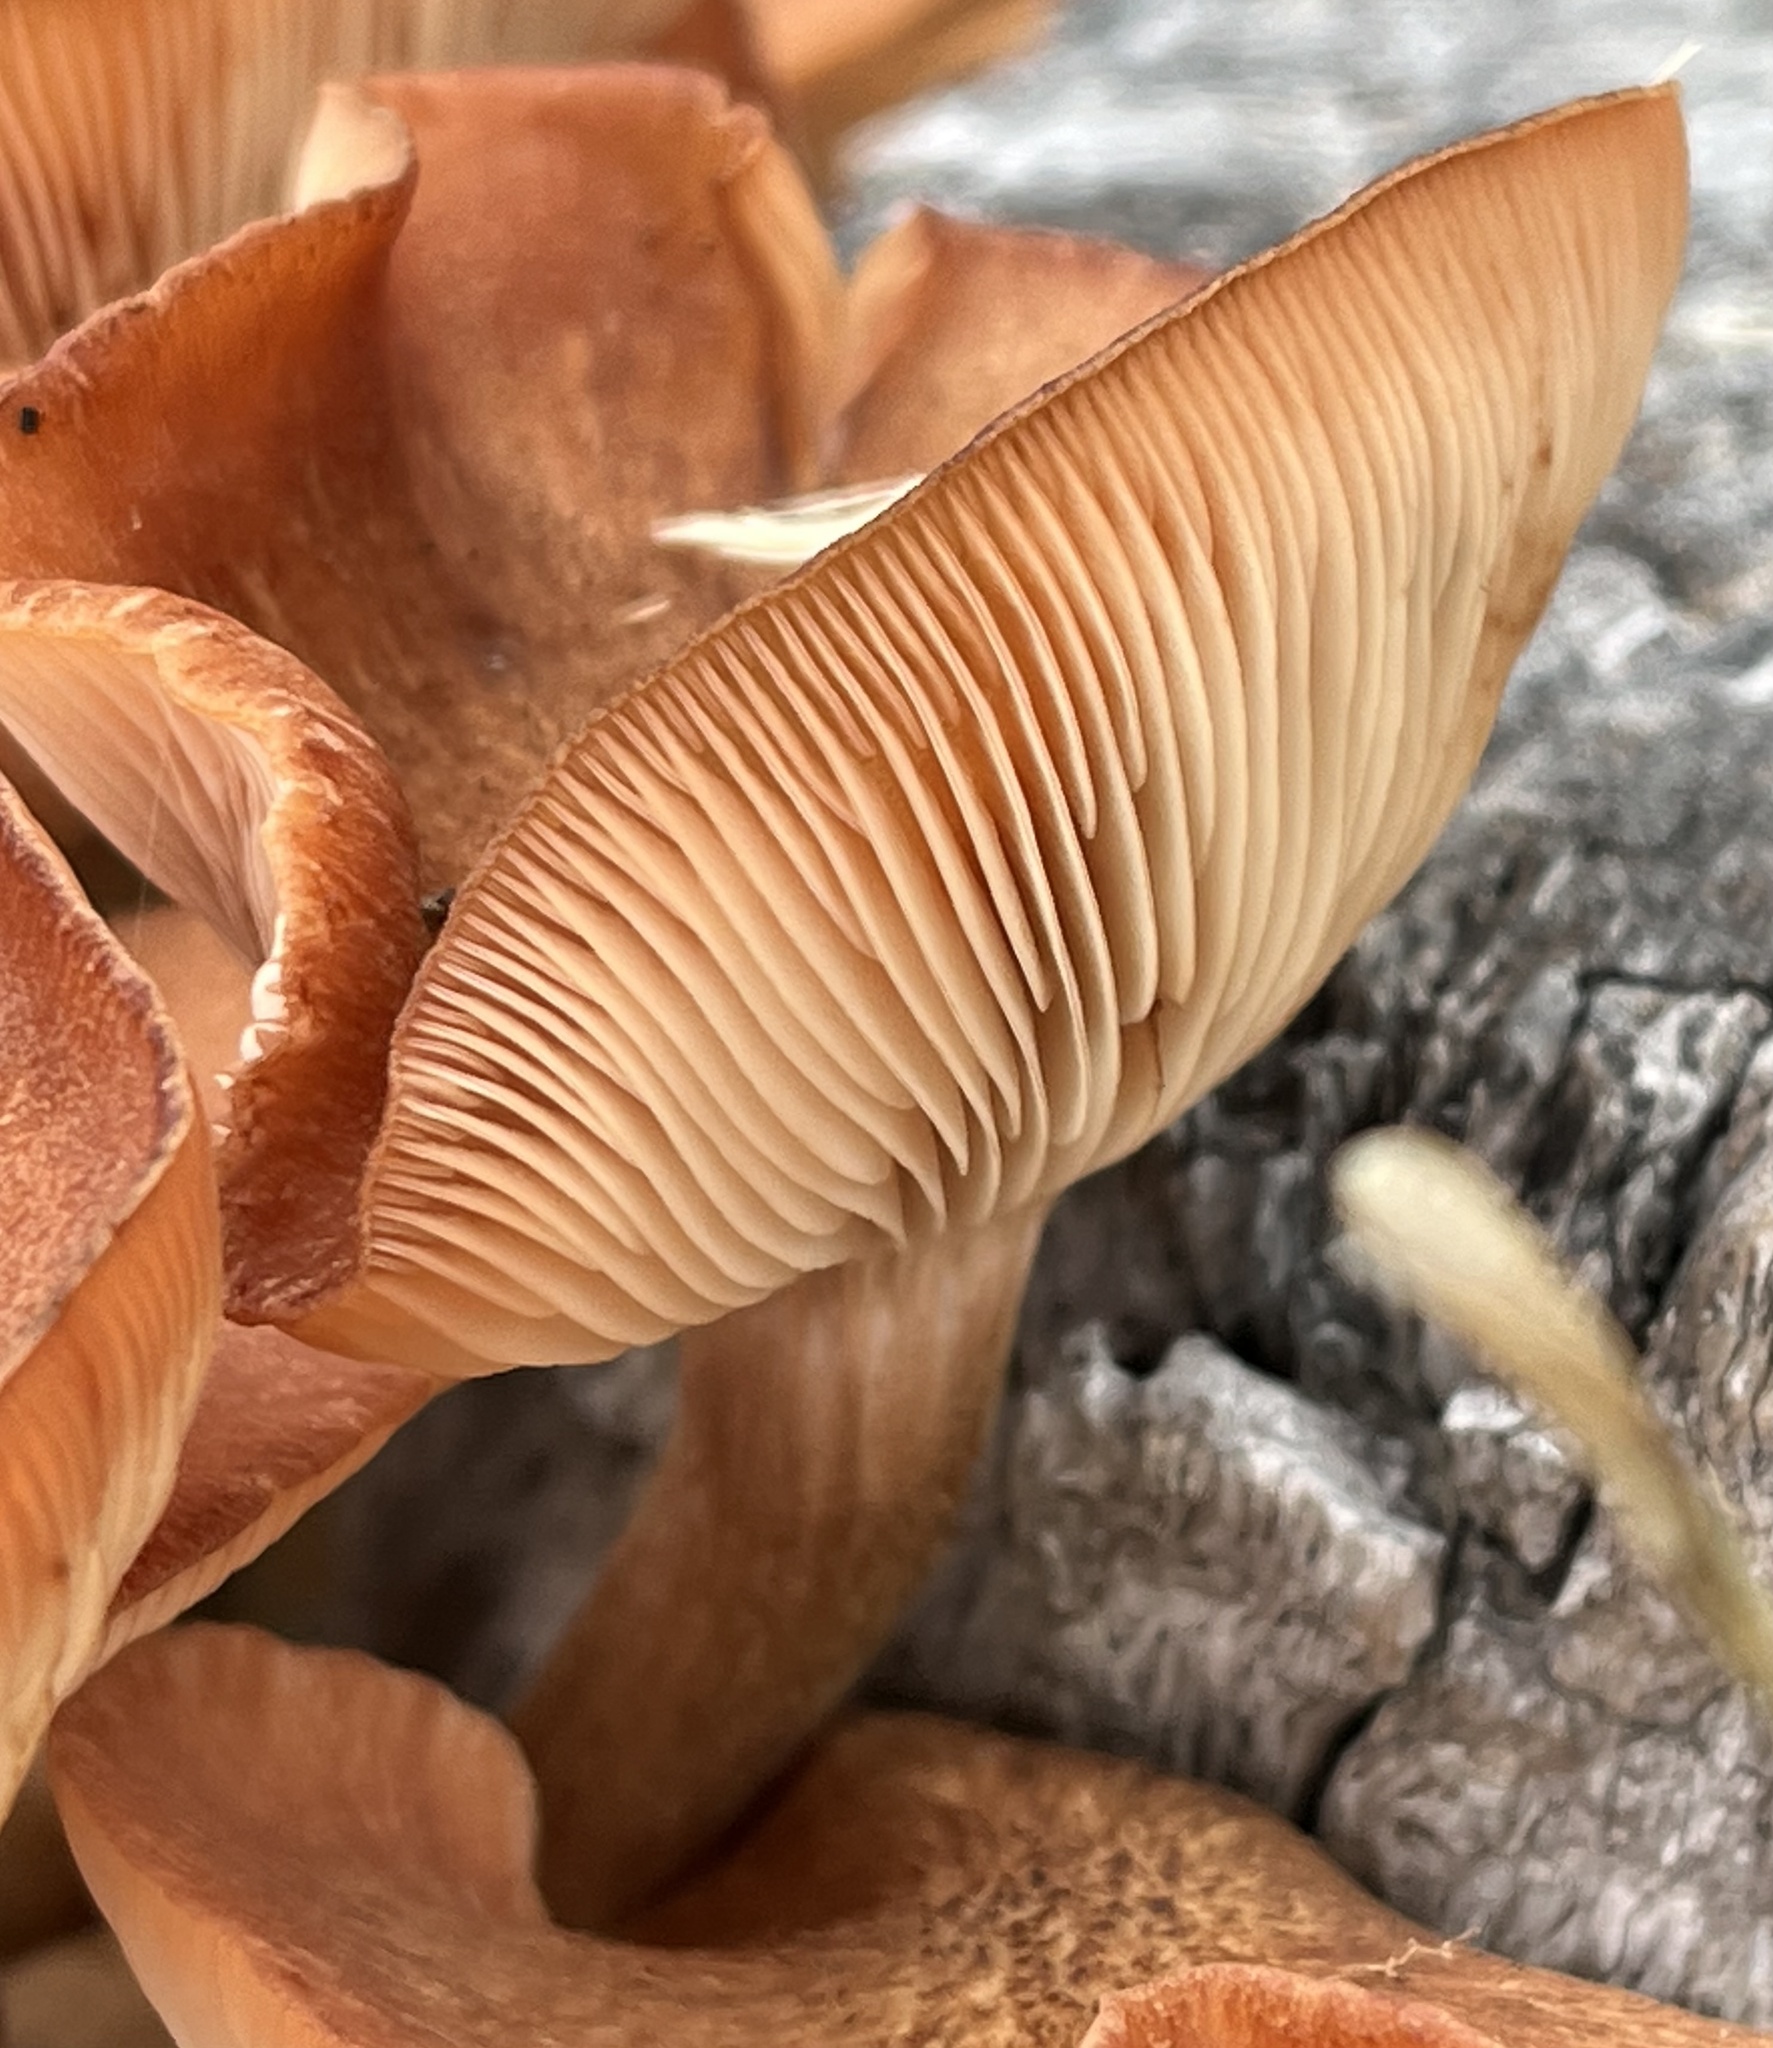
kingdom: Fungi
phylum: Basidiomycota
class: Agaricomycetes
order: Agaricales
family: Physalacriaceae
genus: Desarmillaria
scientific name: Desarmillaria caespitosa
